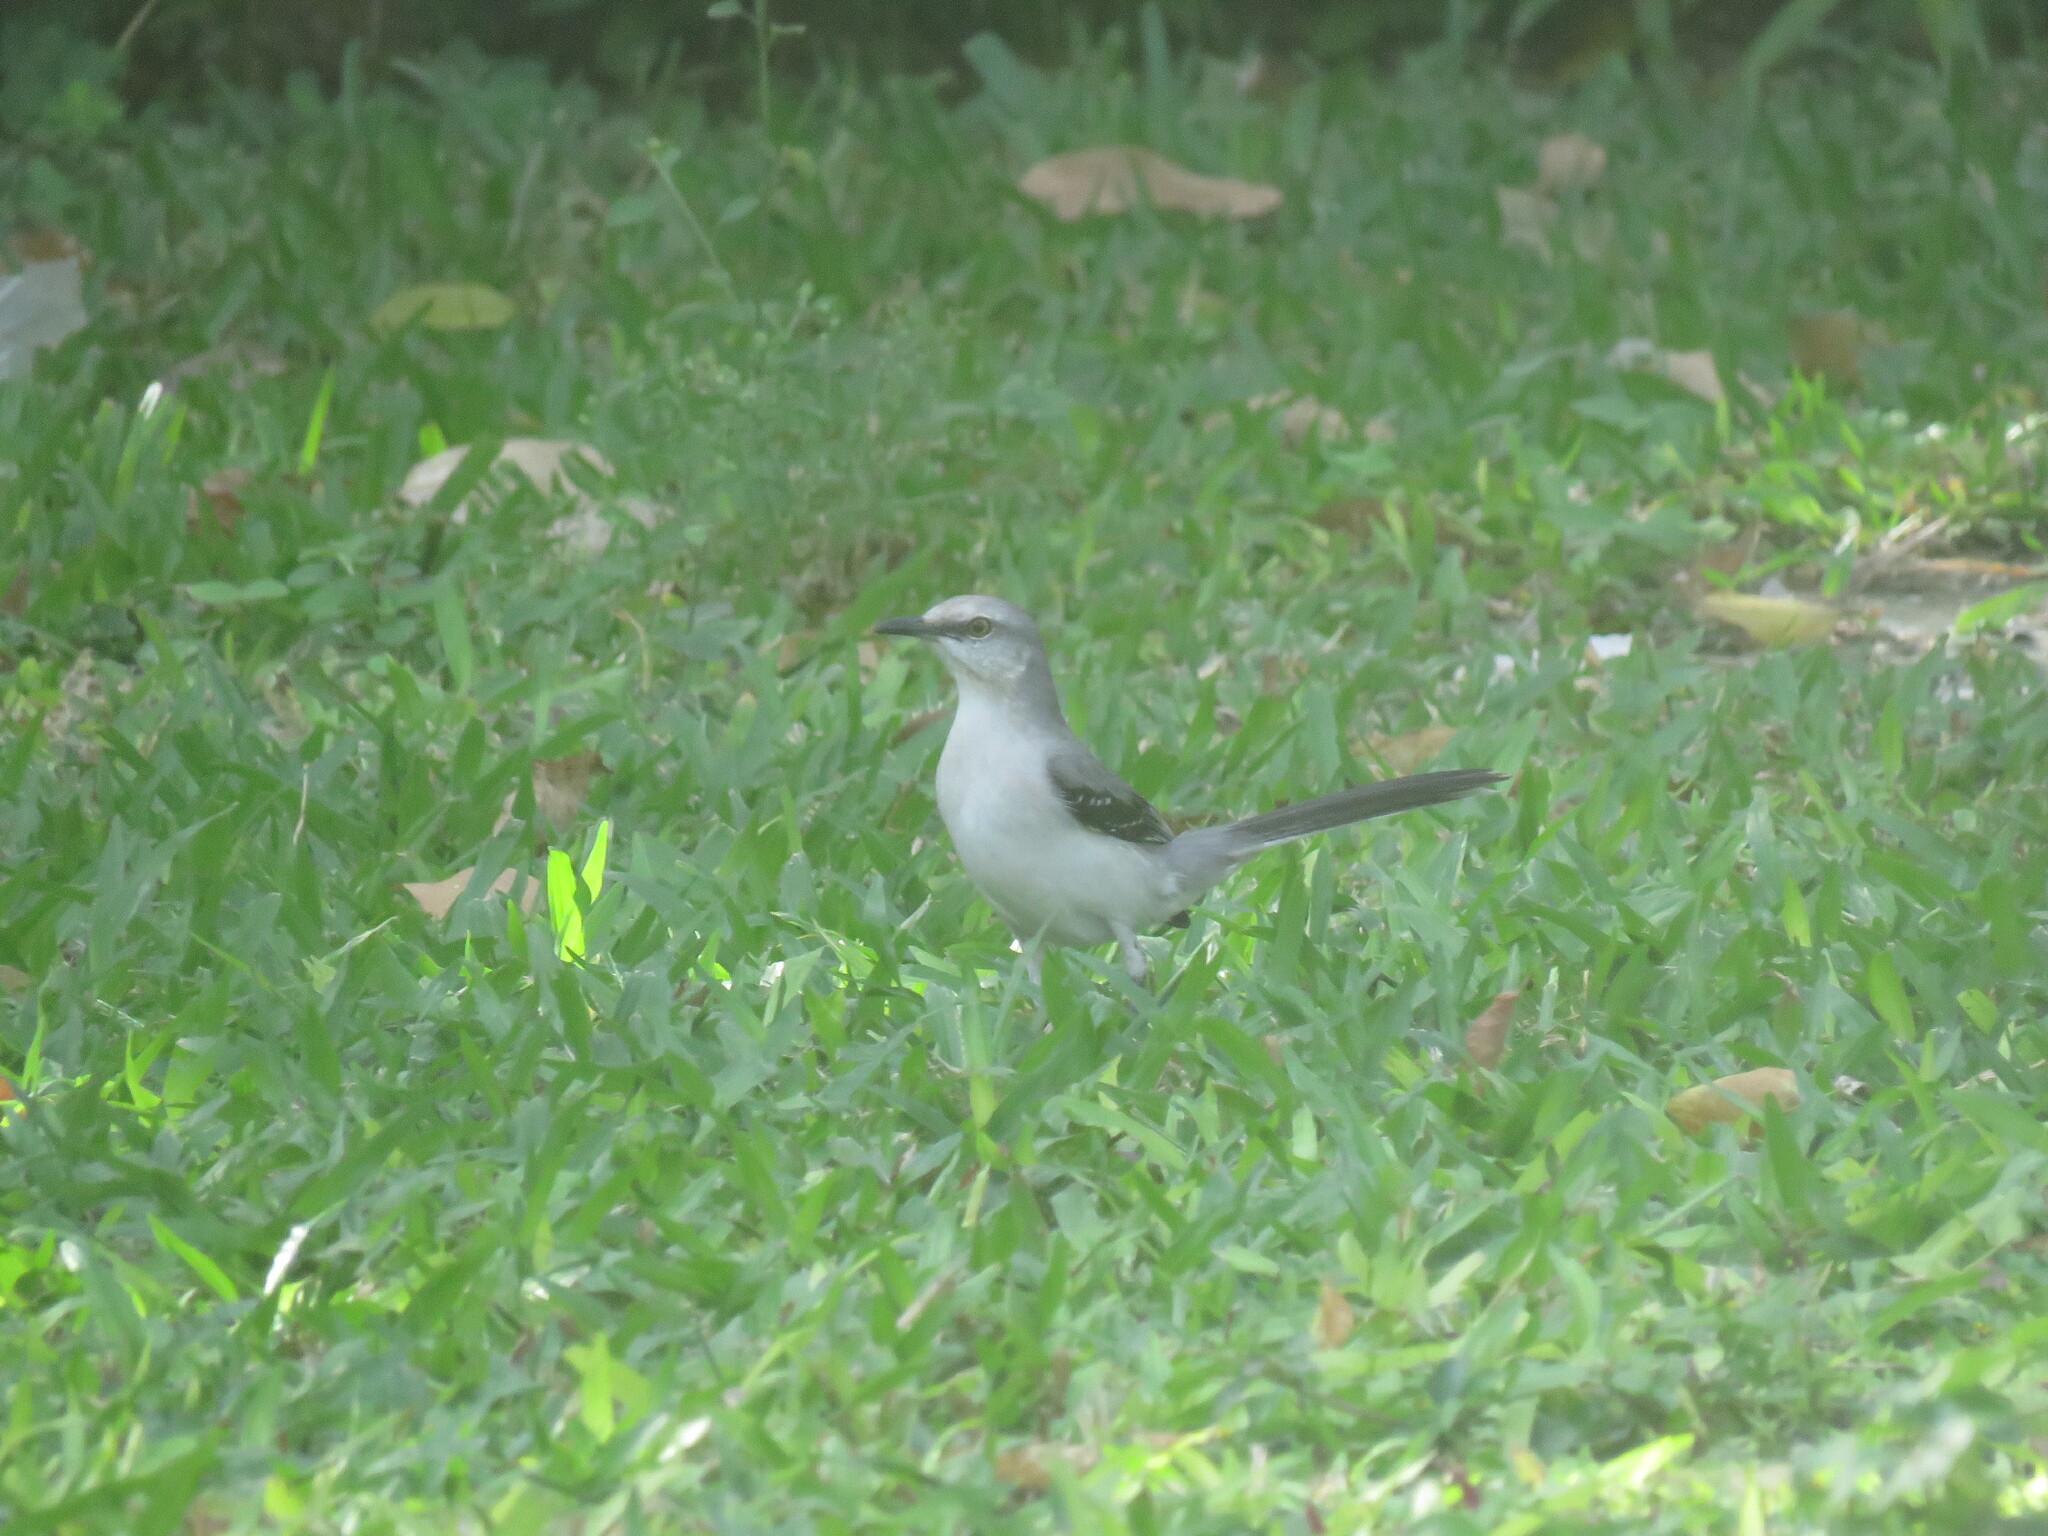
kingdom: Animalia
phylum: Chordata
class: Aves
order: Passeriformes
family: Mimidae
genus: Mimus
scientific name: Mimus gilvus
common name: Tropical mockingbird
